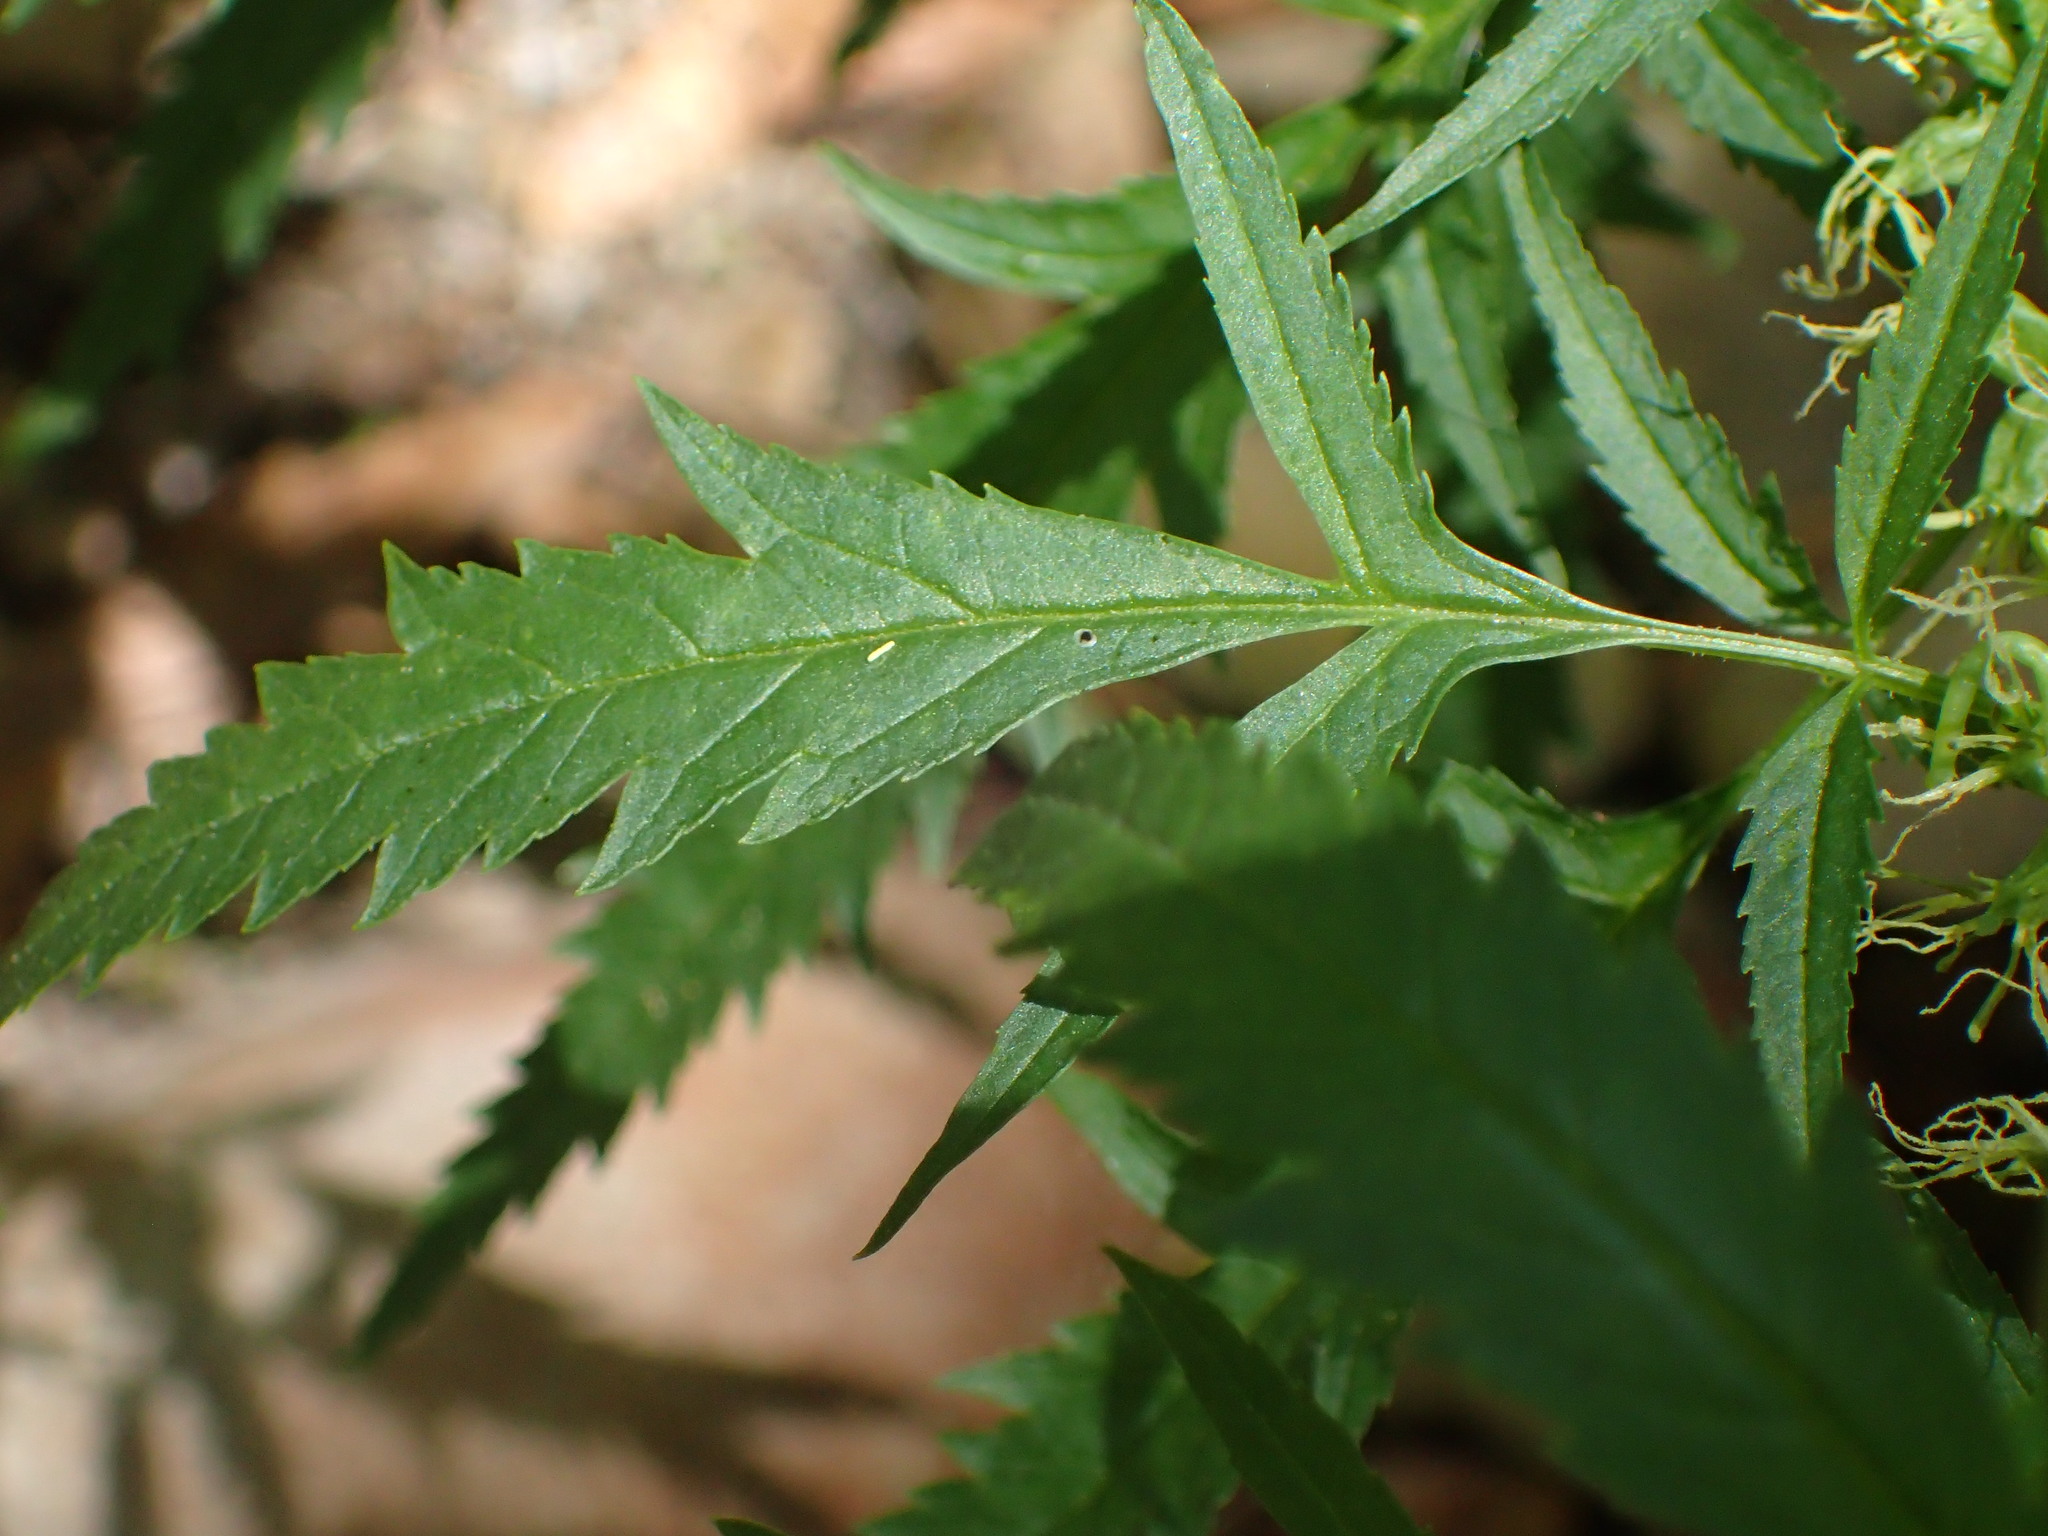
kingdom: Plantae
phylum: Tracheophyta
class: Magnoliopsida
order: Cucurbitales
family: Datiscaceae
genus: Datisca
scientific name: Datisca glomerata
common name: Durango-root
